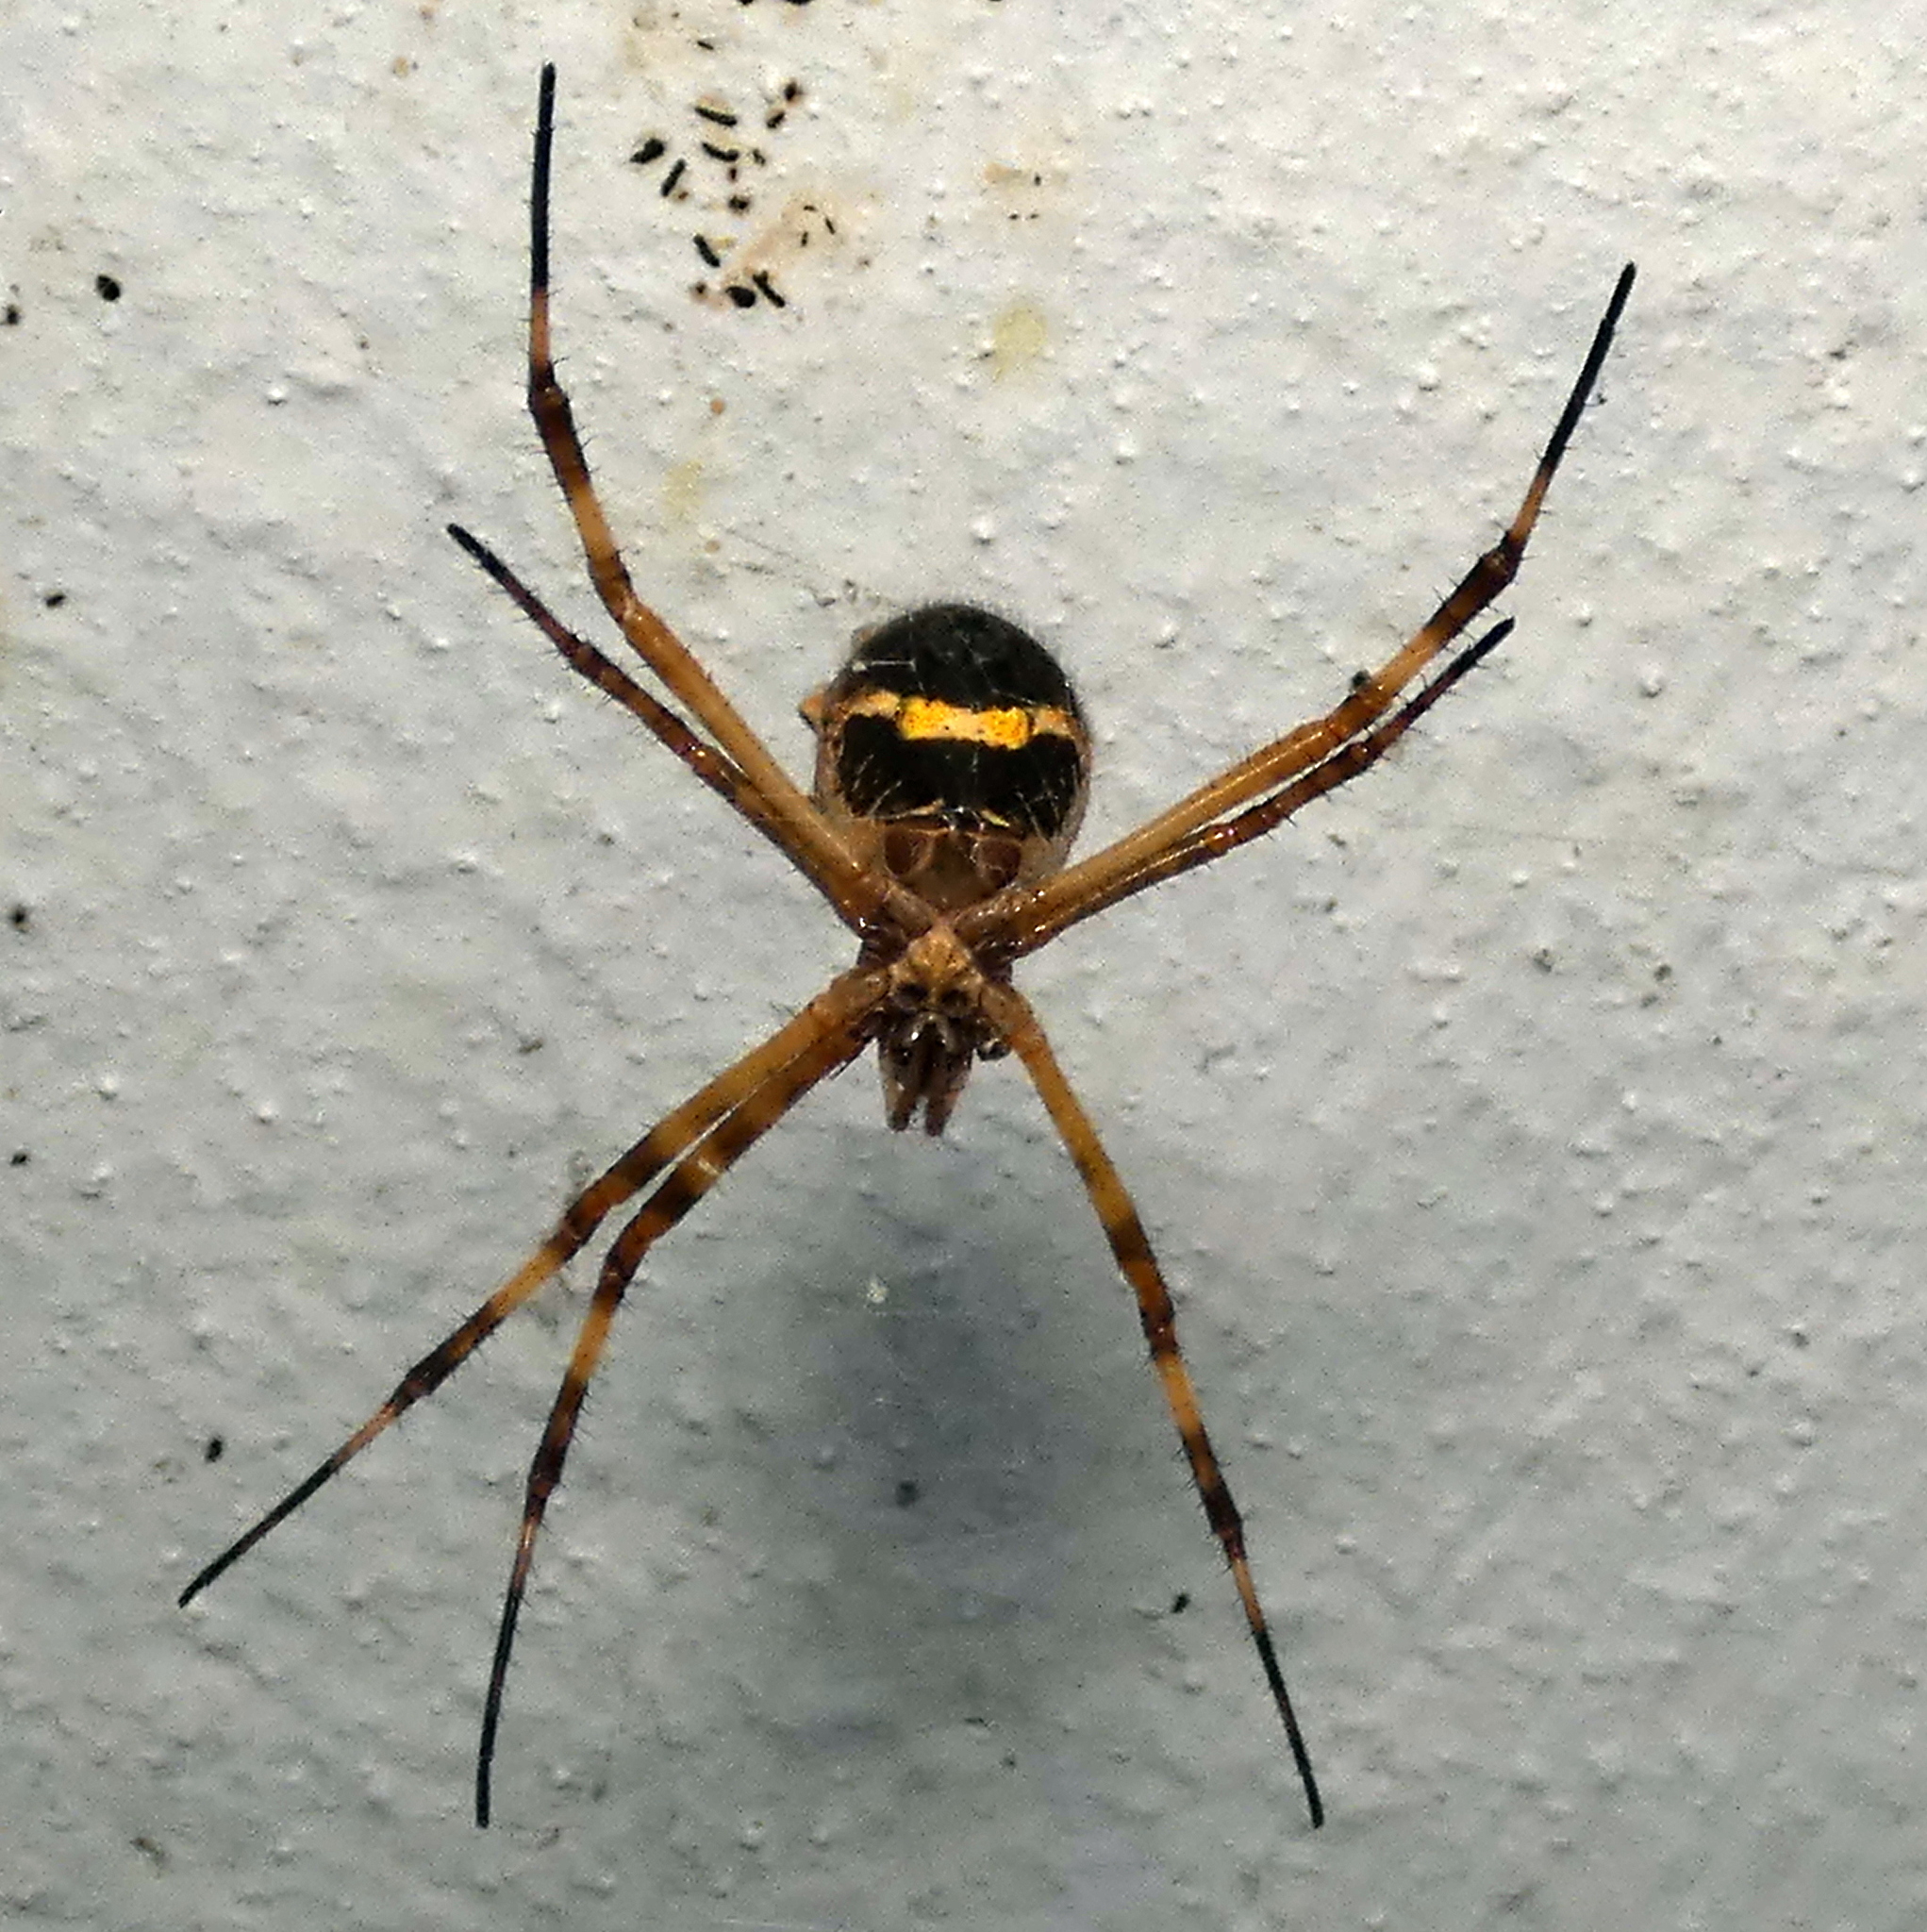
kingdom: Animalia
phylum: Arthropoda
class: Arachnida
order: Araneae
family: Araneidae
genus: Argiope
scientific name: Argiope argentata
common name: Orb weavers
